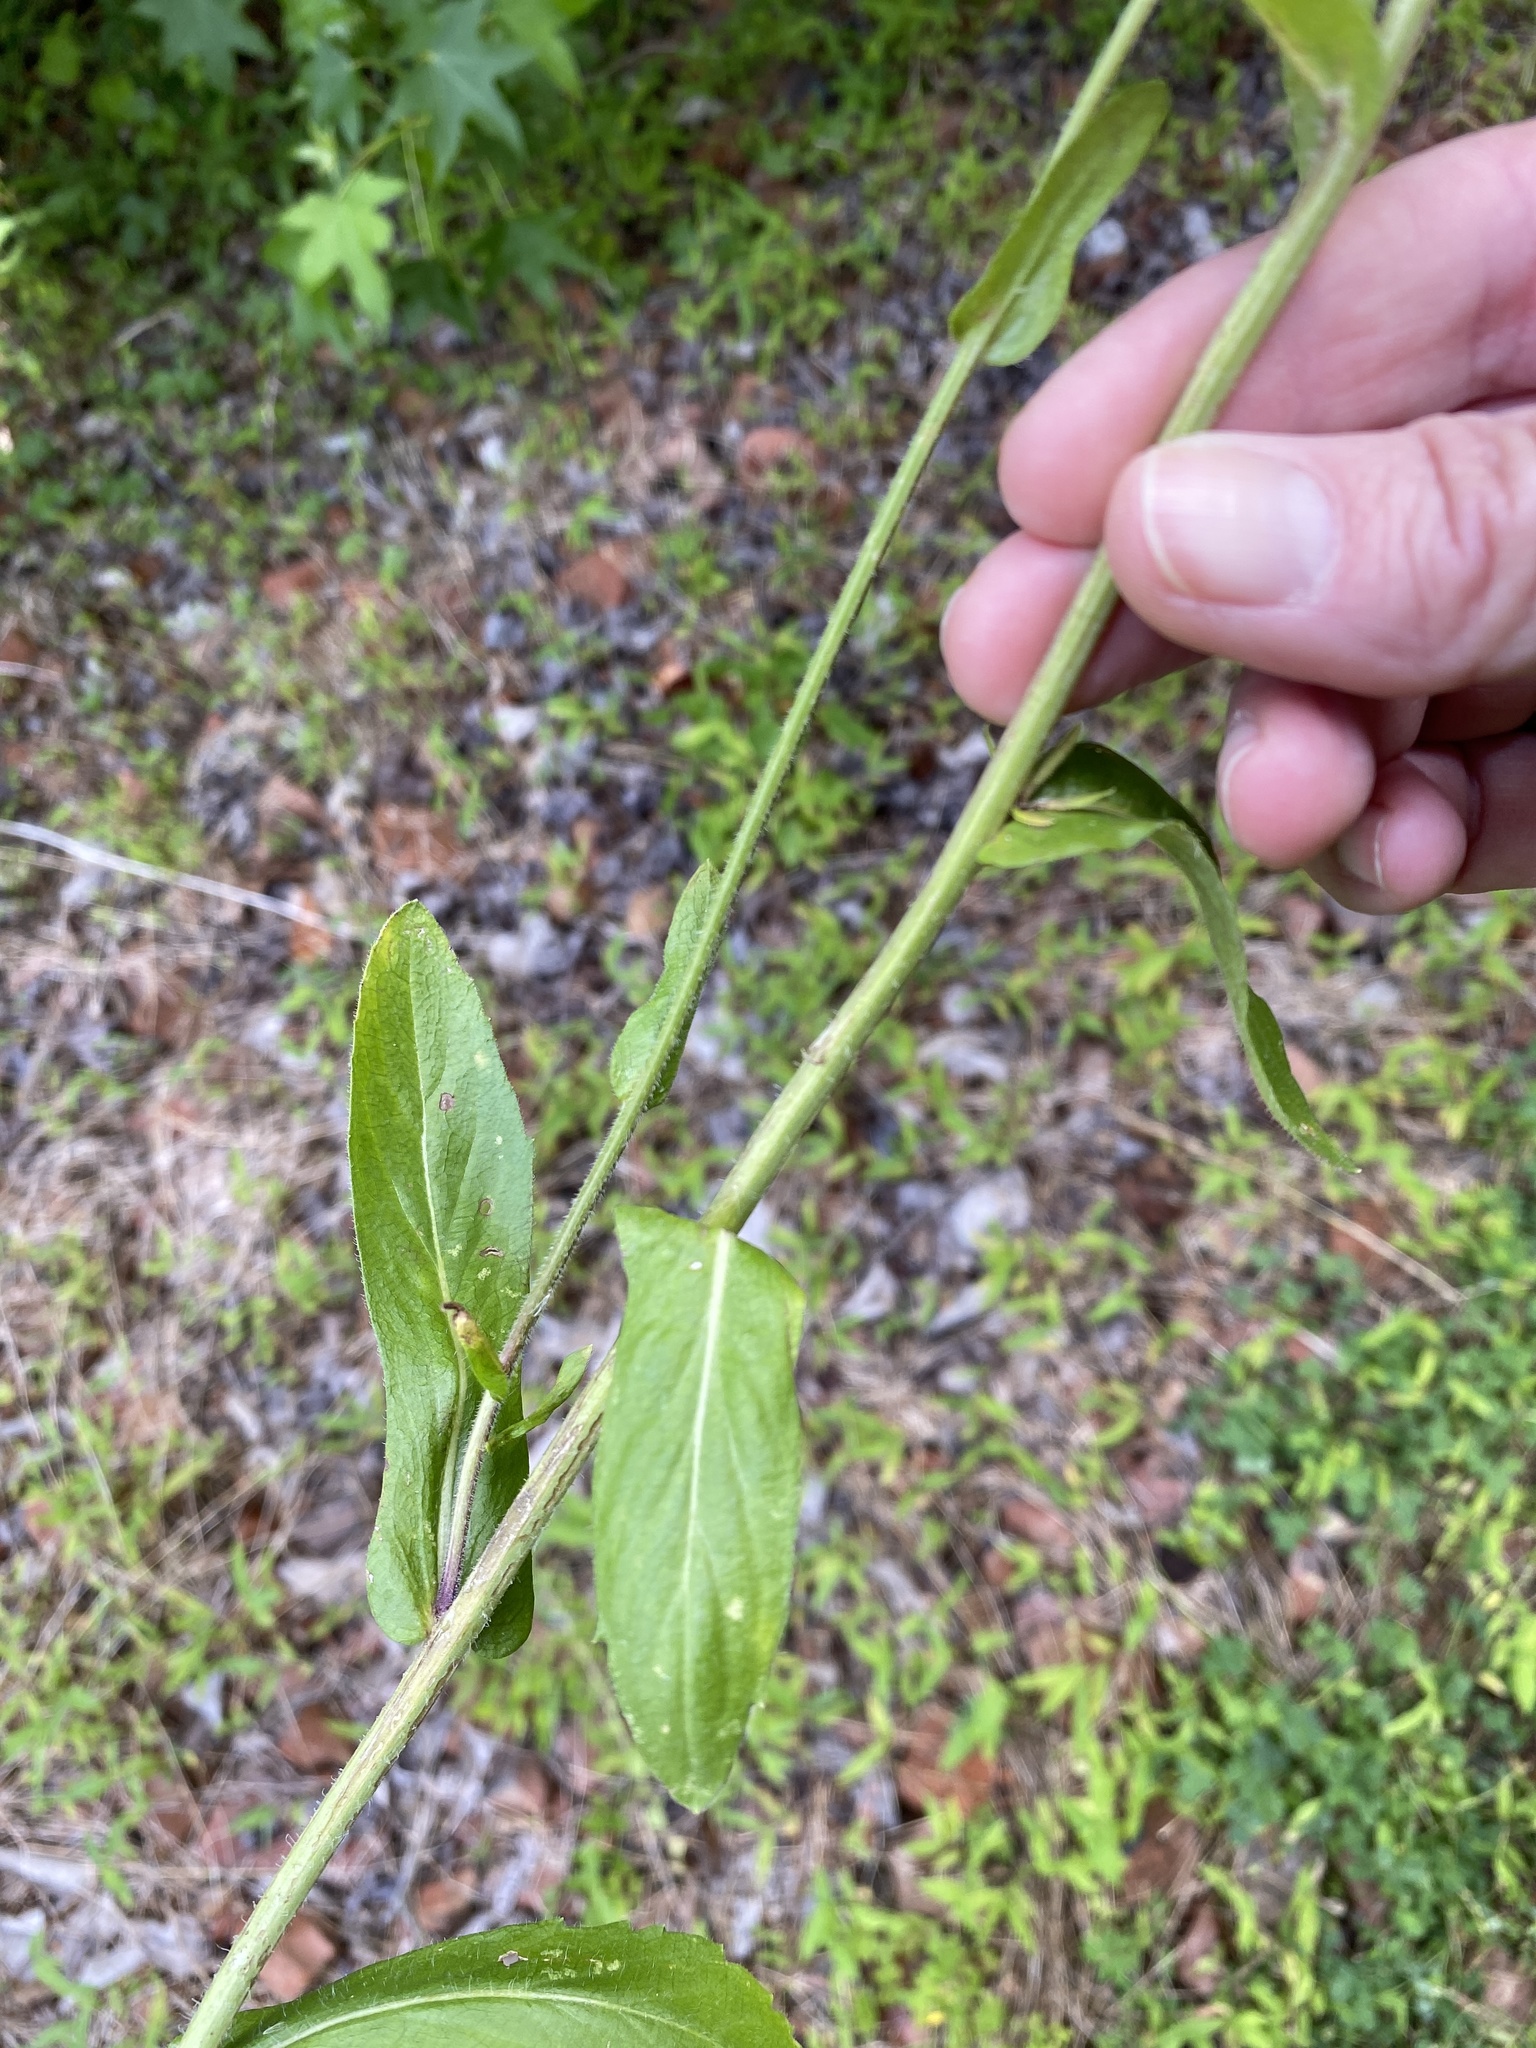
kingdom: Plantae
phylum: Tracheophyta
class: Magnoliopsida
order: Asterales
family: Asteraceae
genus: Erigeron
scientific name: Erigeron philadelphicus
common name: Robin's-plantain
